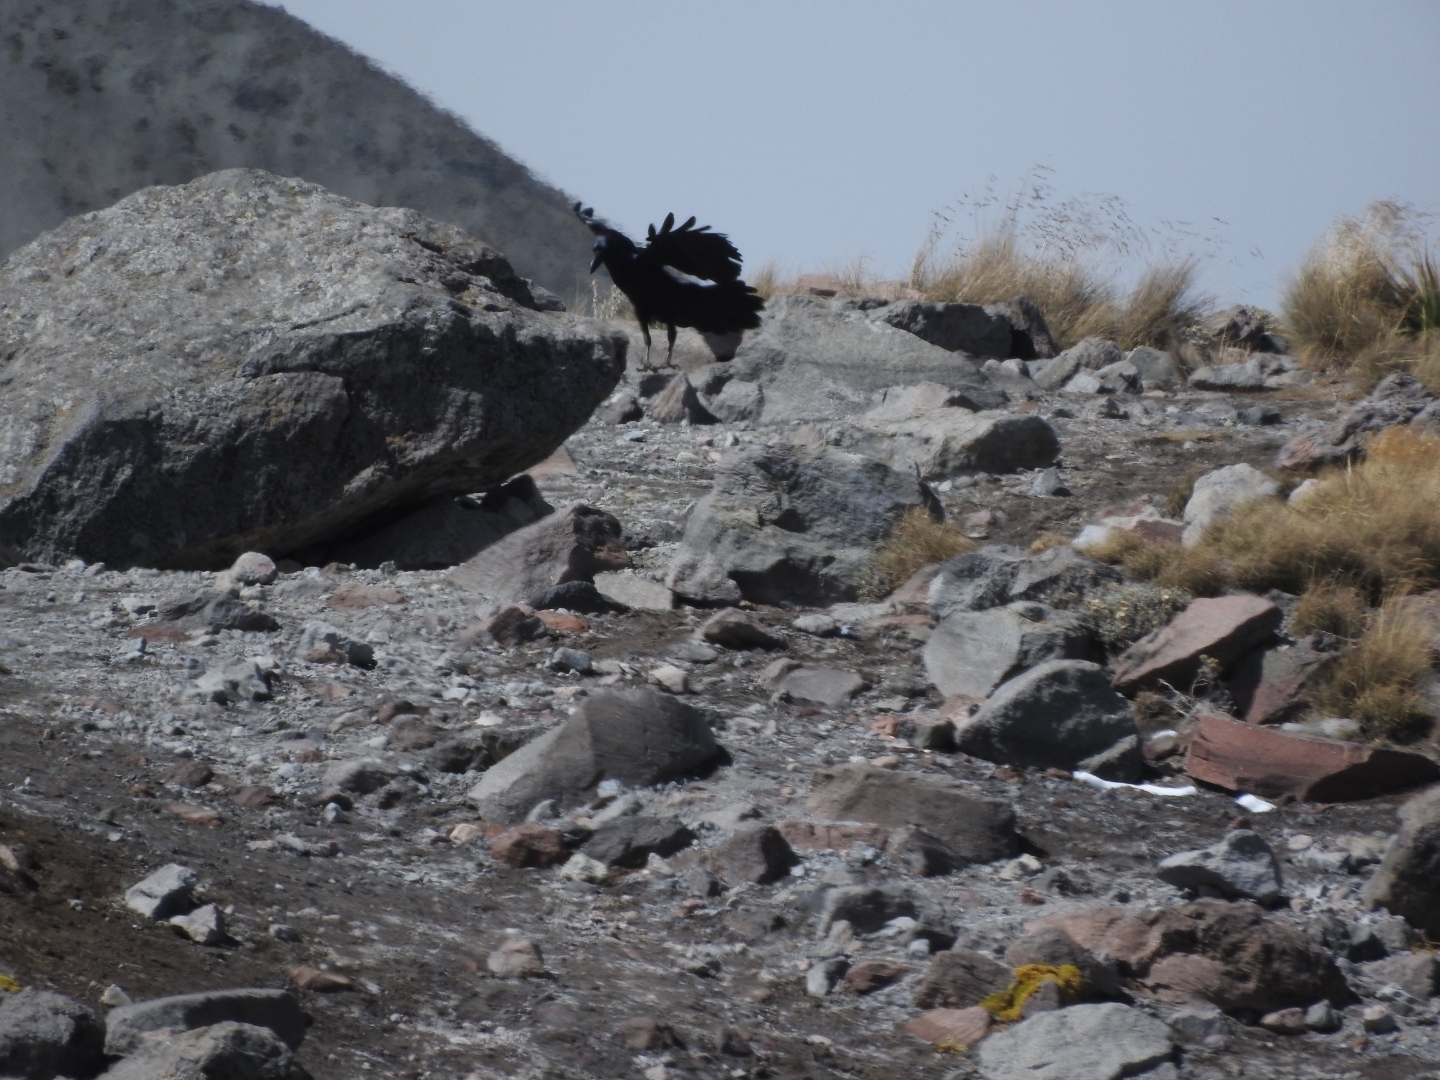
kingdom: Animalia
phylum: Chordata
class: Aves
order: Passeriformes
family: Corvidae
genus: Corvus
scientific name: Corvus corax
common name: Common raven
